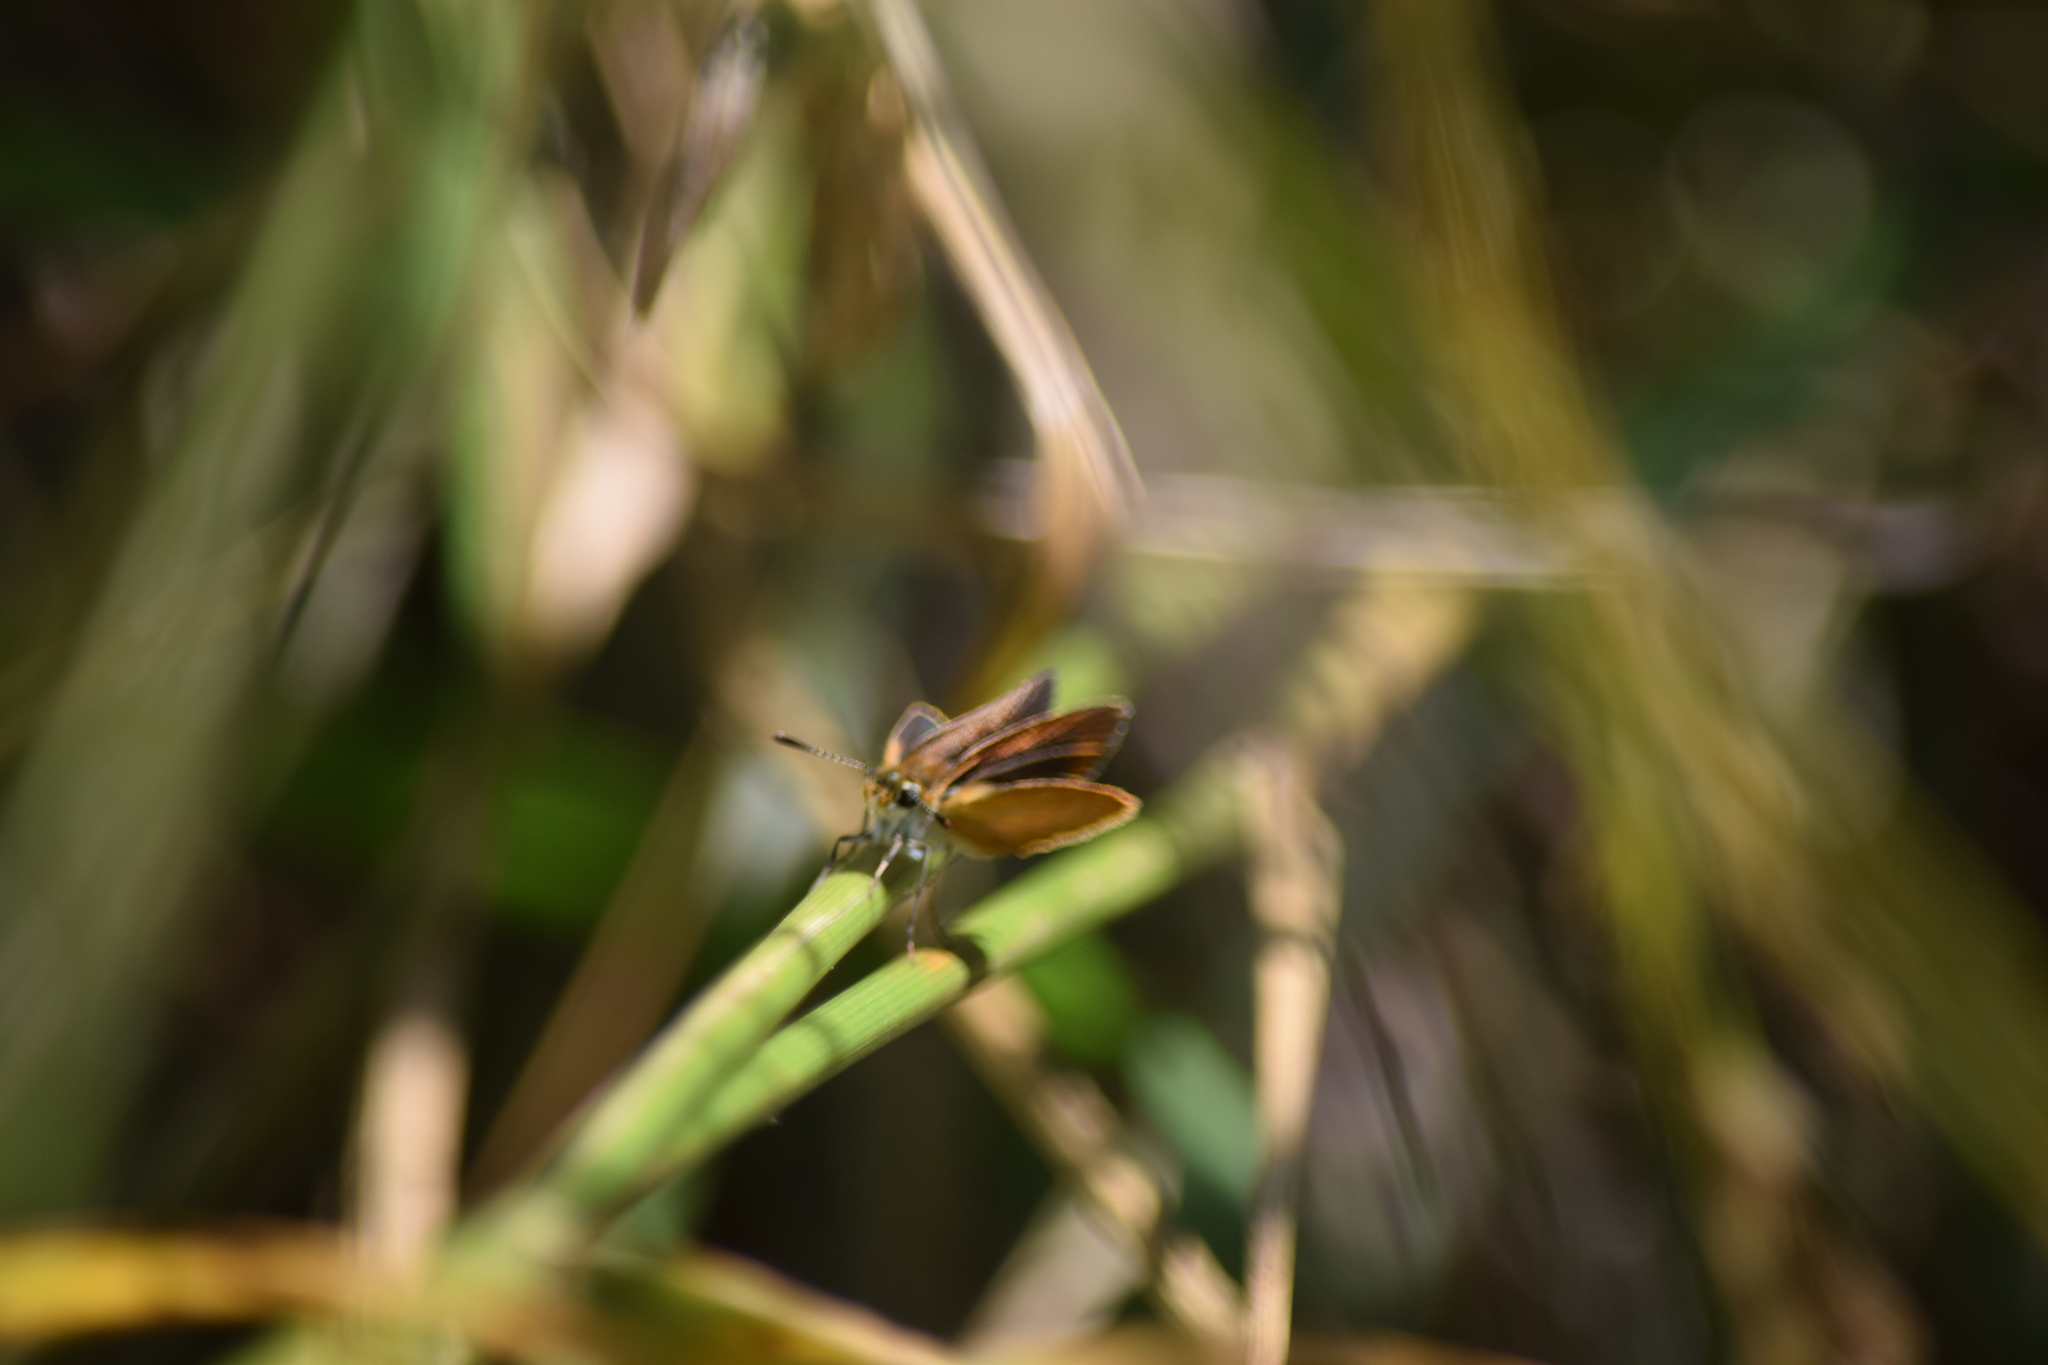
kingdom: Animalia
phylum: Arthropoda
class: Insecta
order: Lepidoptera
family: Hesperiidae
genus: Ancyloxypha
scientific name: Ancyloxypha numitor
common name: Least skipper
